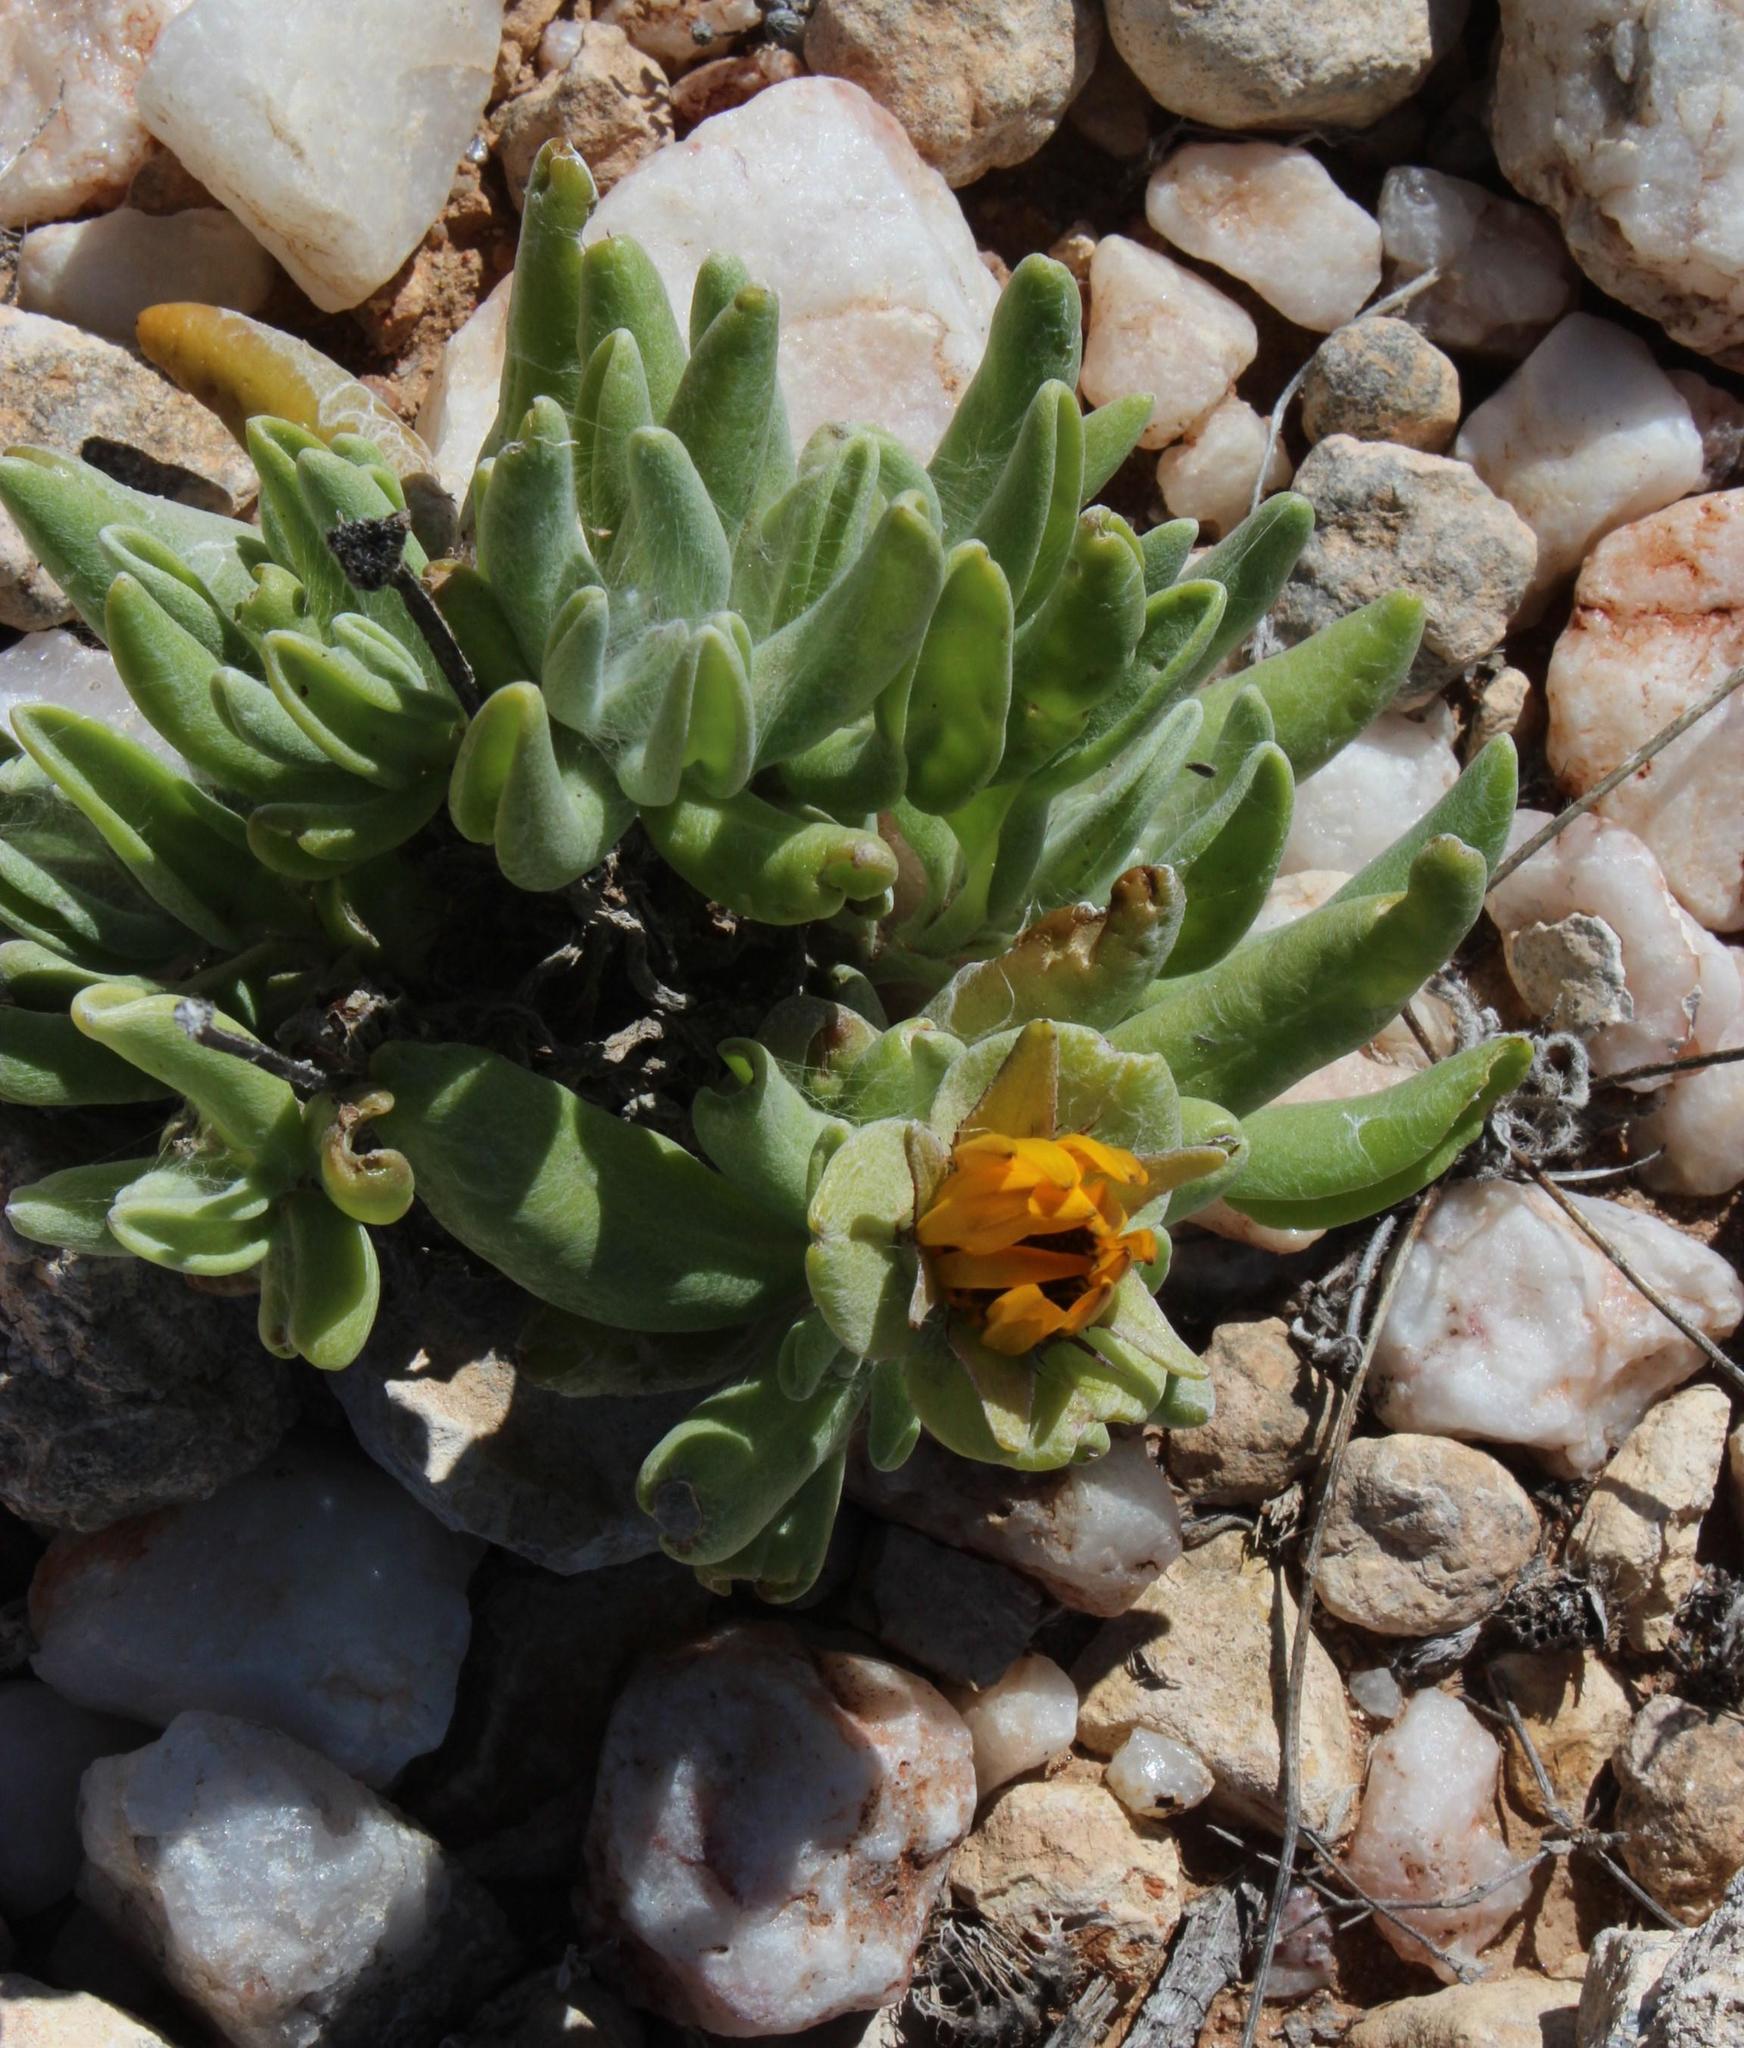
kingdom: Plantae
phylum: Tracheophyta
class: Magnoliopsida
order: Asterales
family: Asteraceae
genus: Didelta
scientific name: Didelta carnosa
